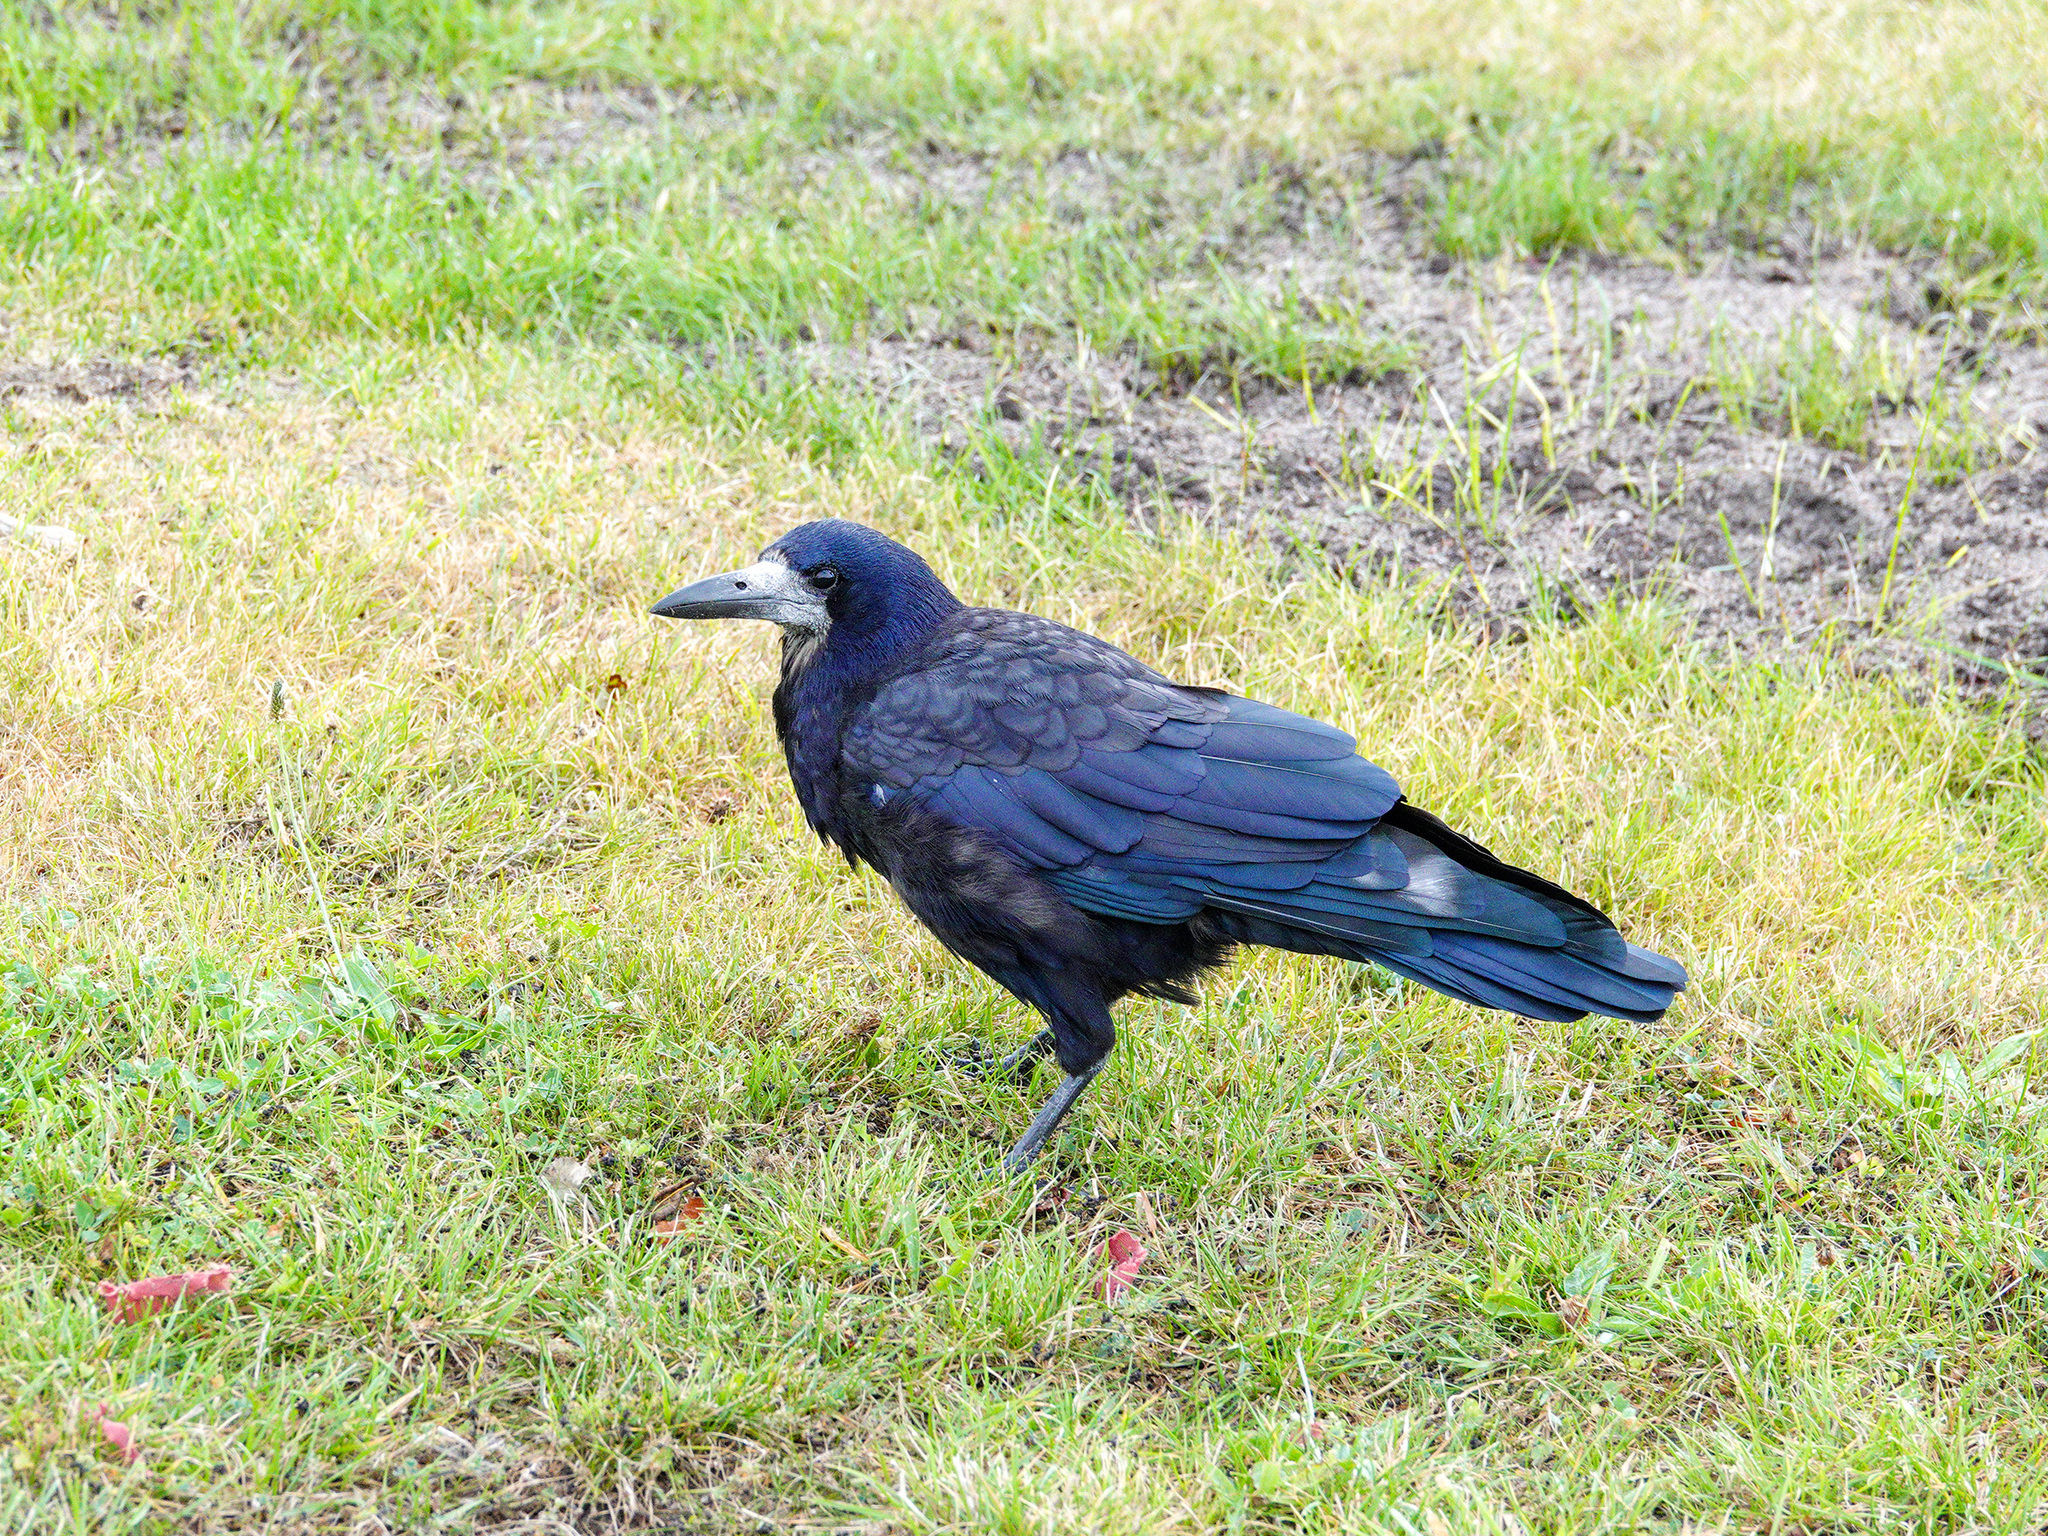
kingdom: Animalia
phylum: Chordata
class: Aves
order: Passeriformes
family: Corvidae
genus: Corvus
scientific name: Corvus frugilegus
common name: Rook
